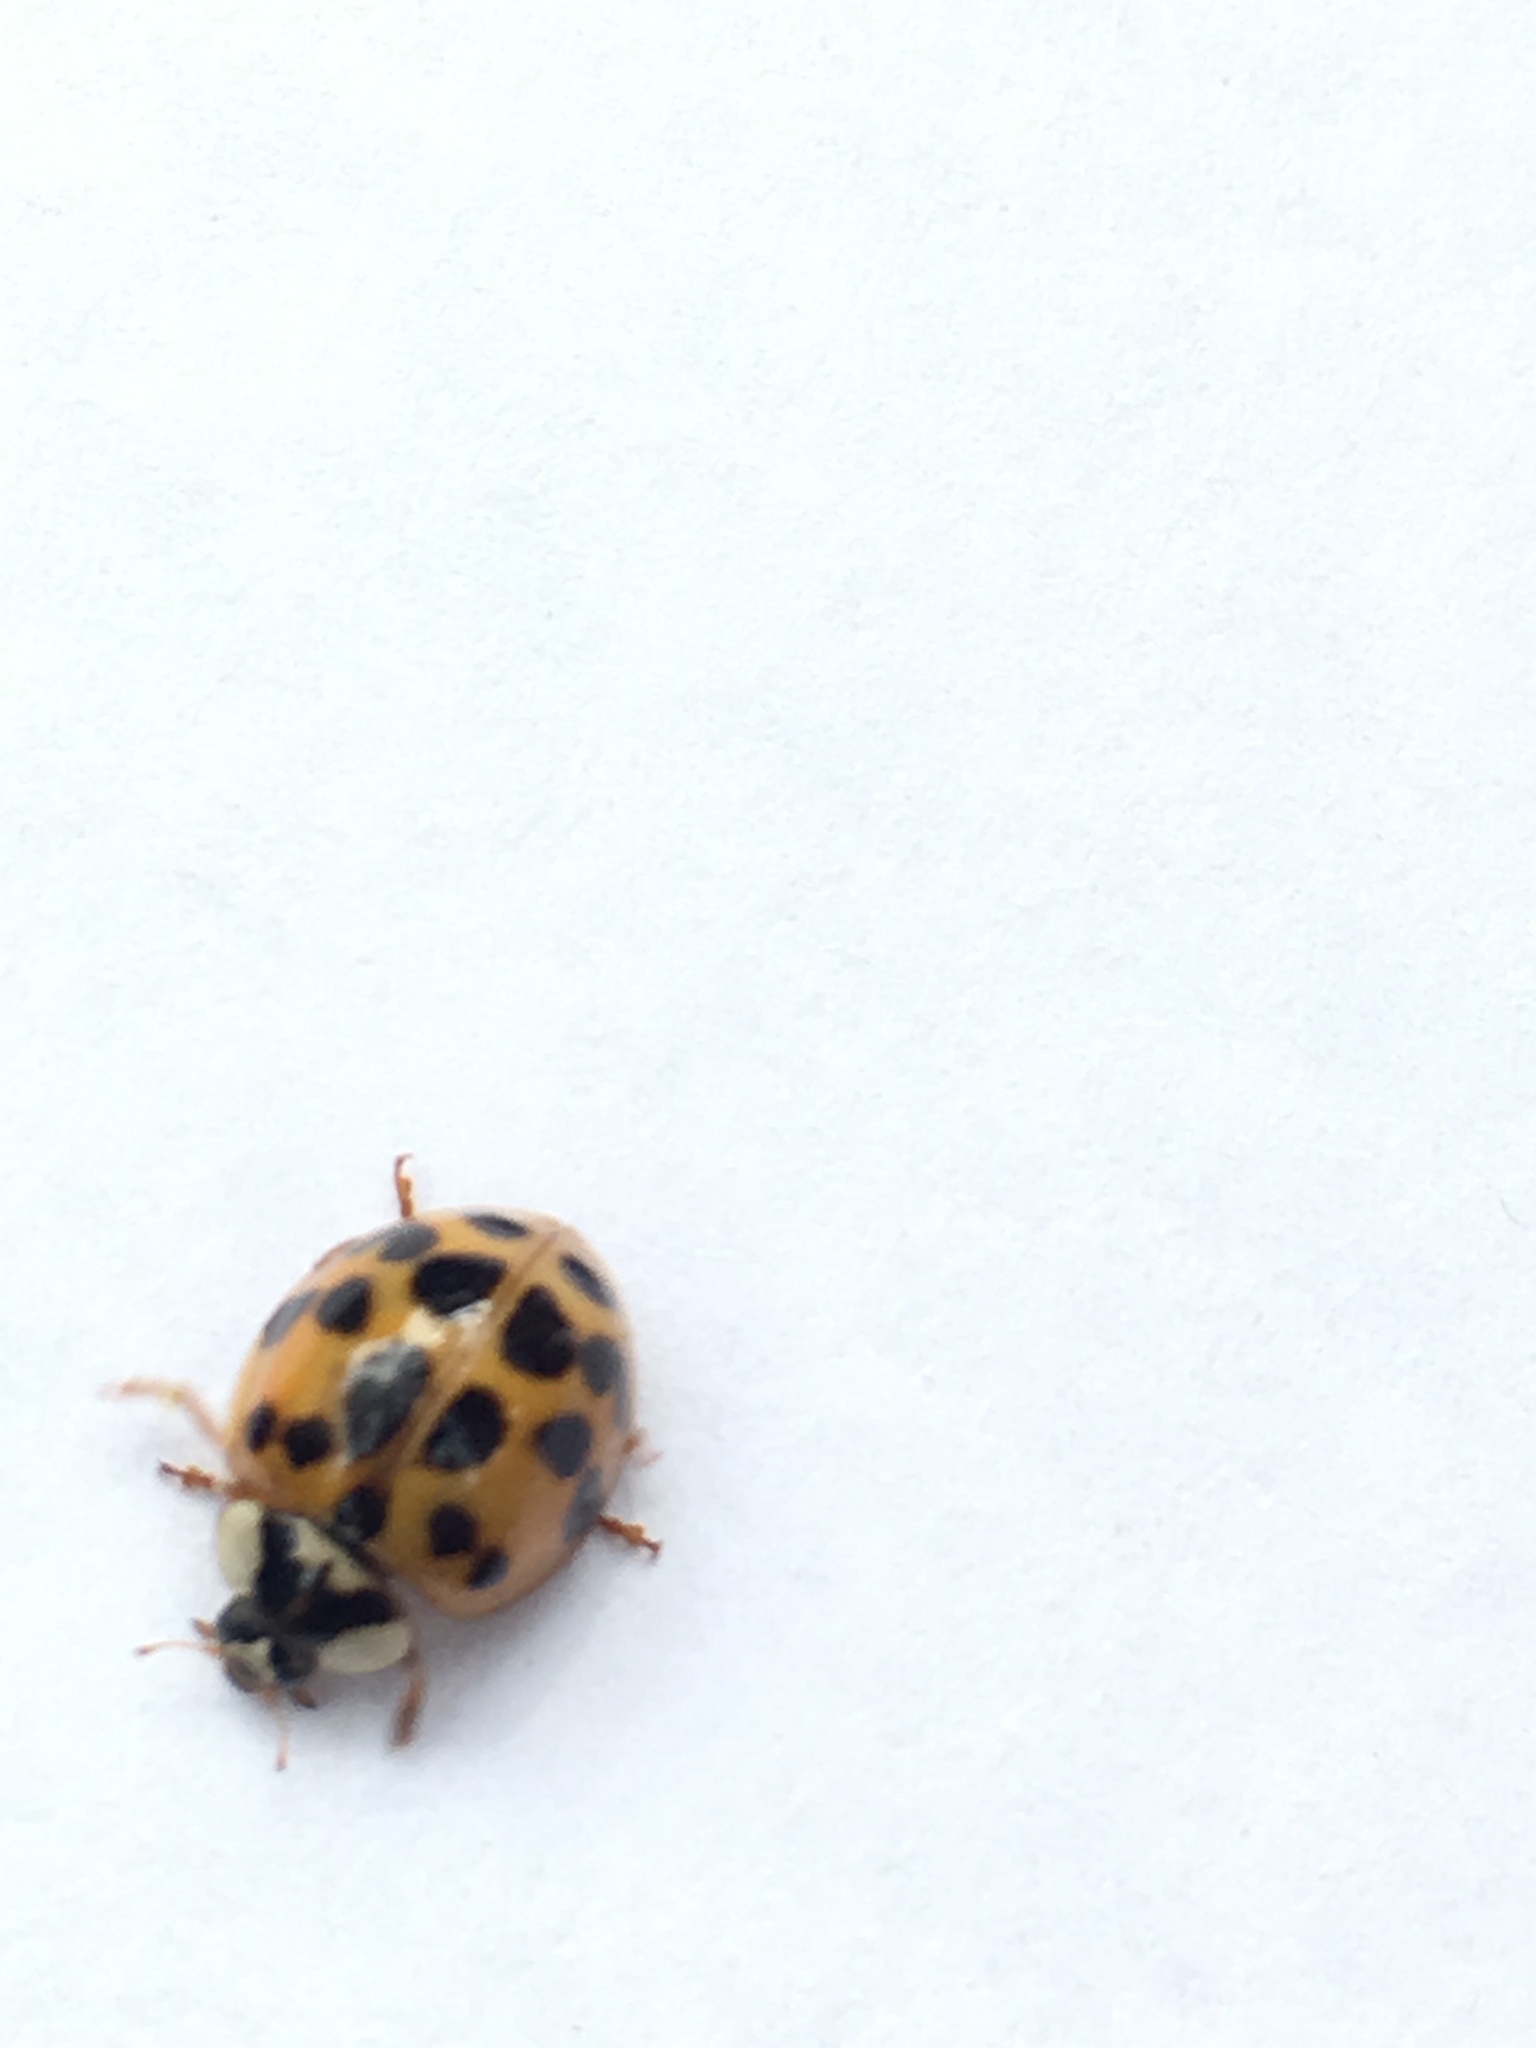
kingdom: Animalia
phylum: Arthropoda
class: Insecta
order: Coleoptera
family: Coccinellidae
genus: Harmonia
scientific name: Harmonia axyridis
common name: Harlequin ladybird
